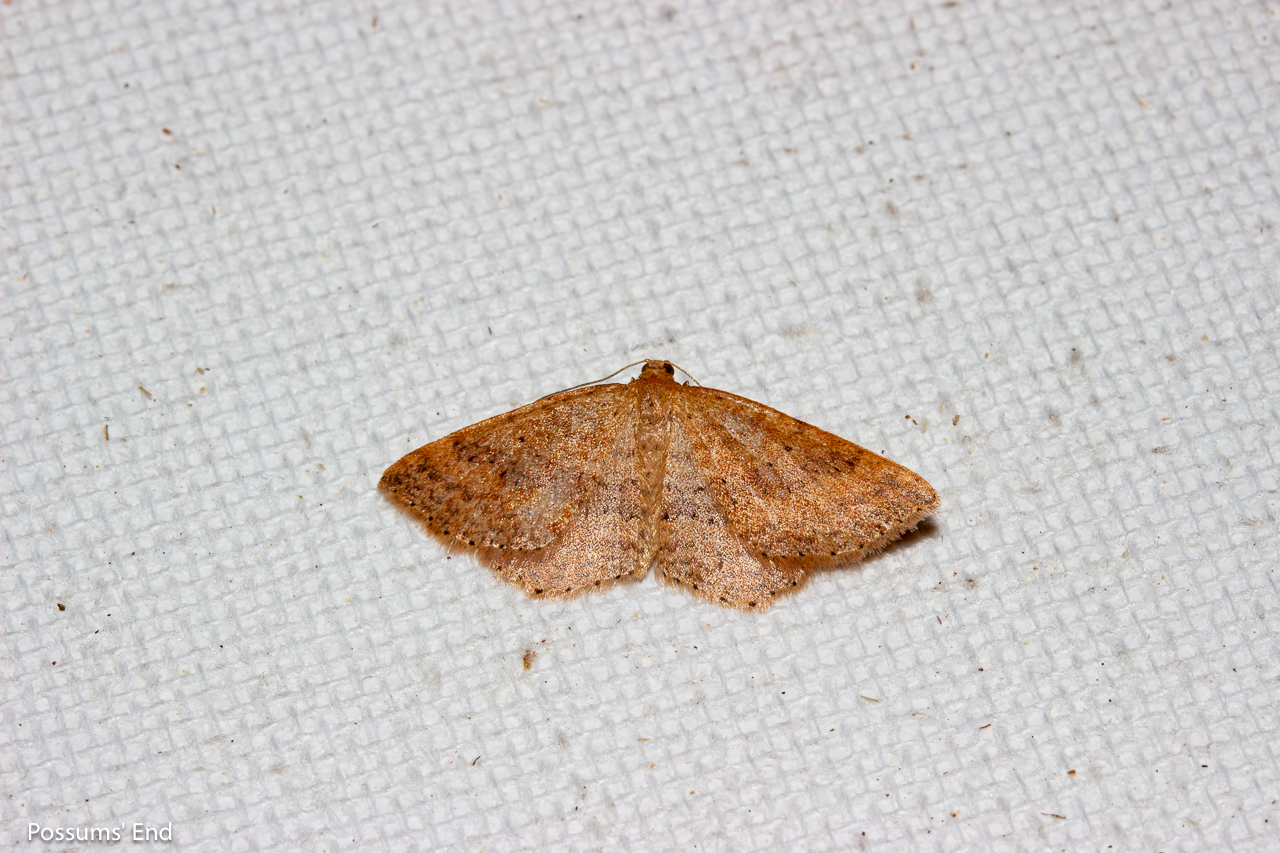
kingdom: Animalia
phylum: Arthropoda
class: Insecta
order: Lepidoptera
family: Geometridae
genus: Epicyme
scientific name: Epicyme rubropunctaria
